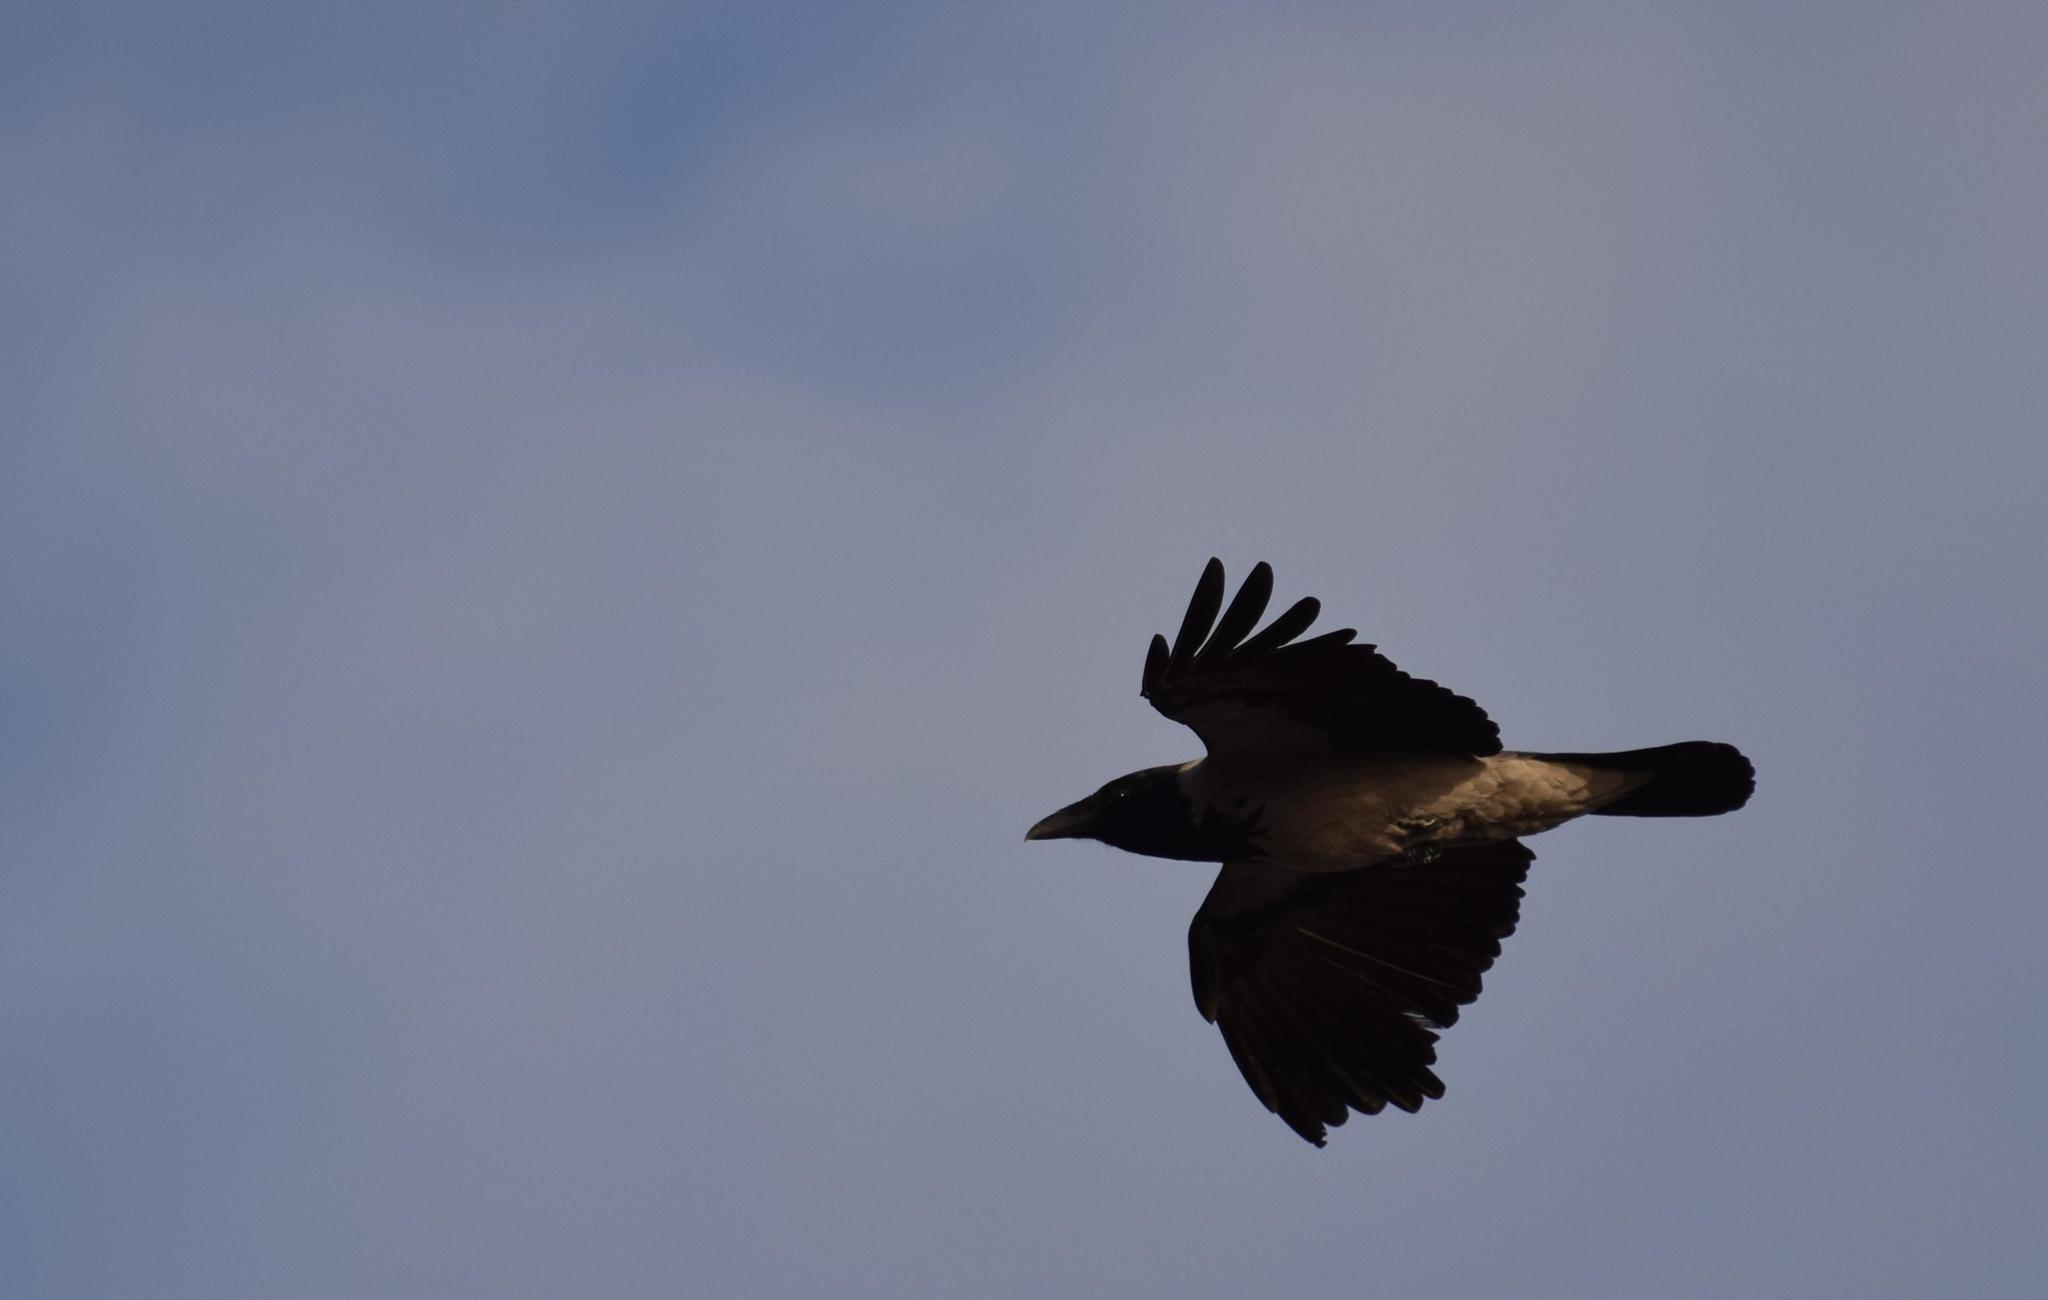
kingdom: Animalia
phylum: Chordata
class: Aves
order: Passeriformes
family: Corvidae
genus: Corvus
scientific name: Corvus cornix
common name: Hooded crow
